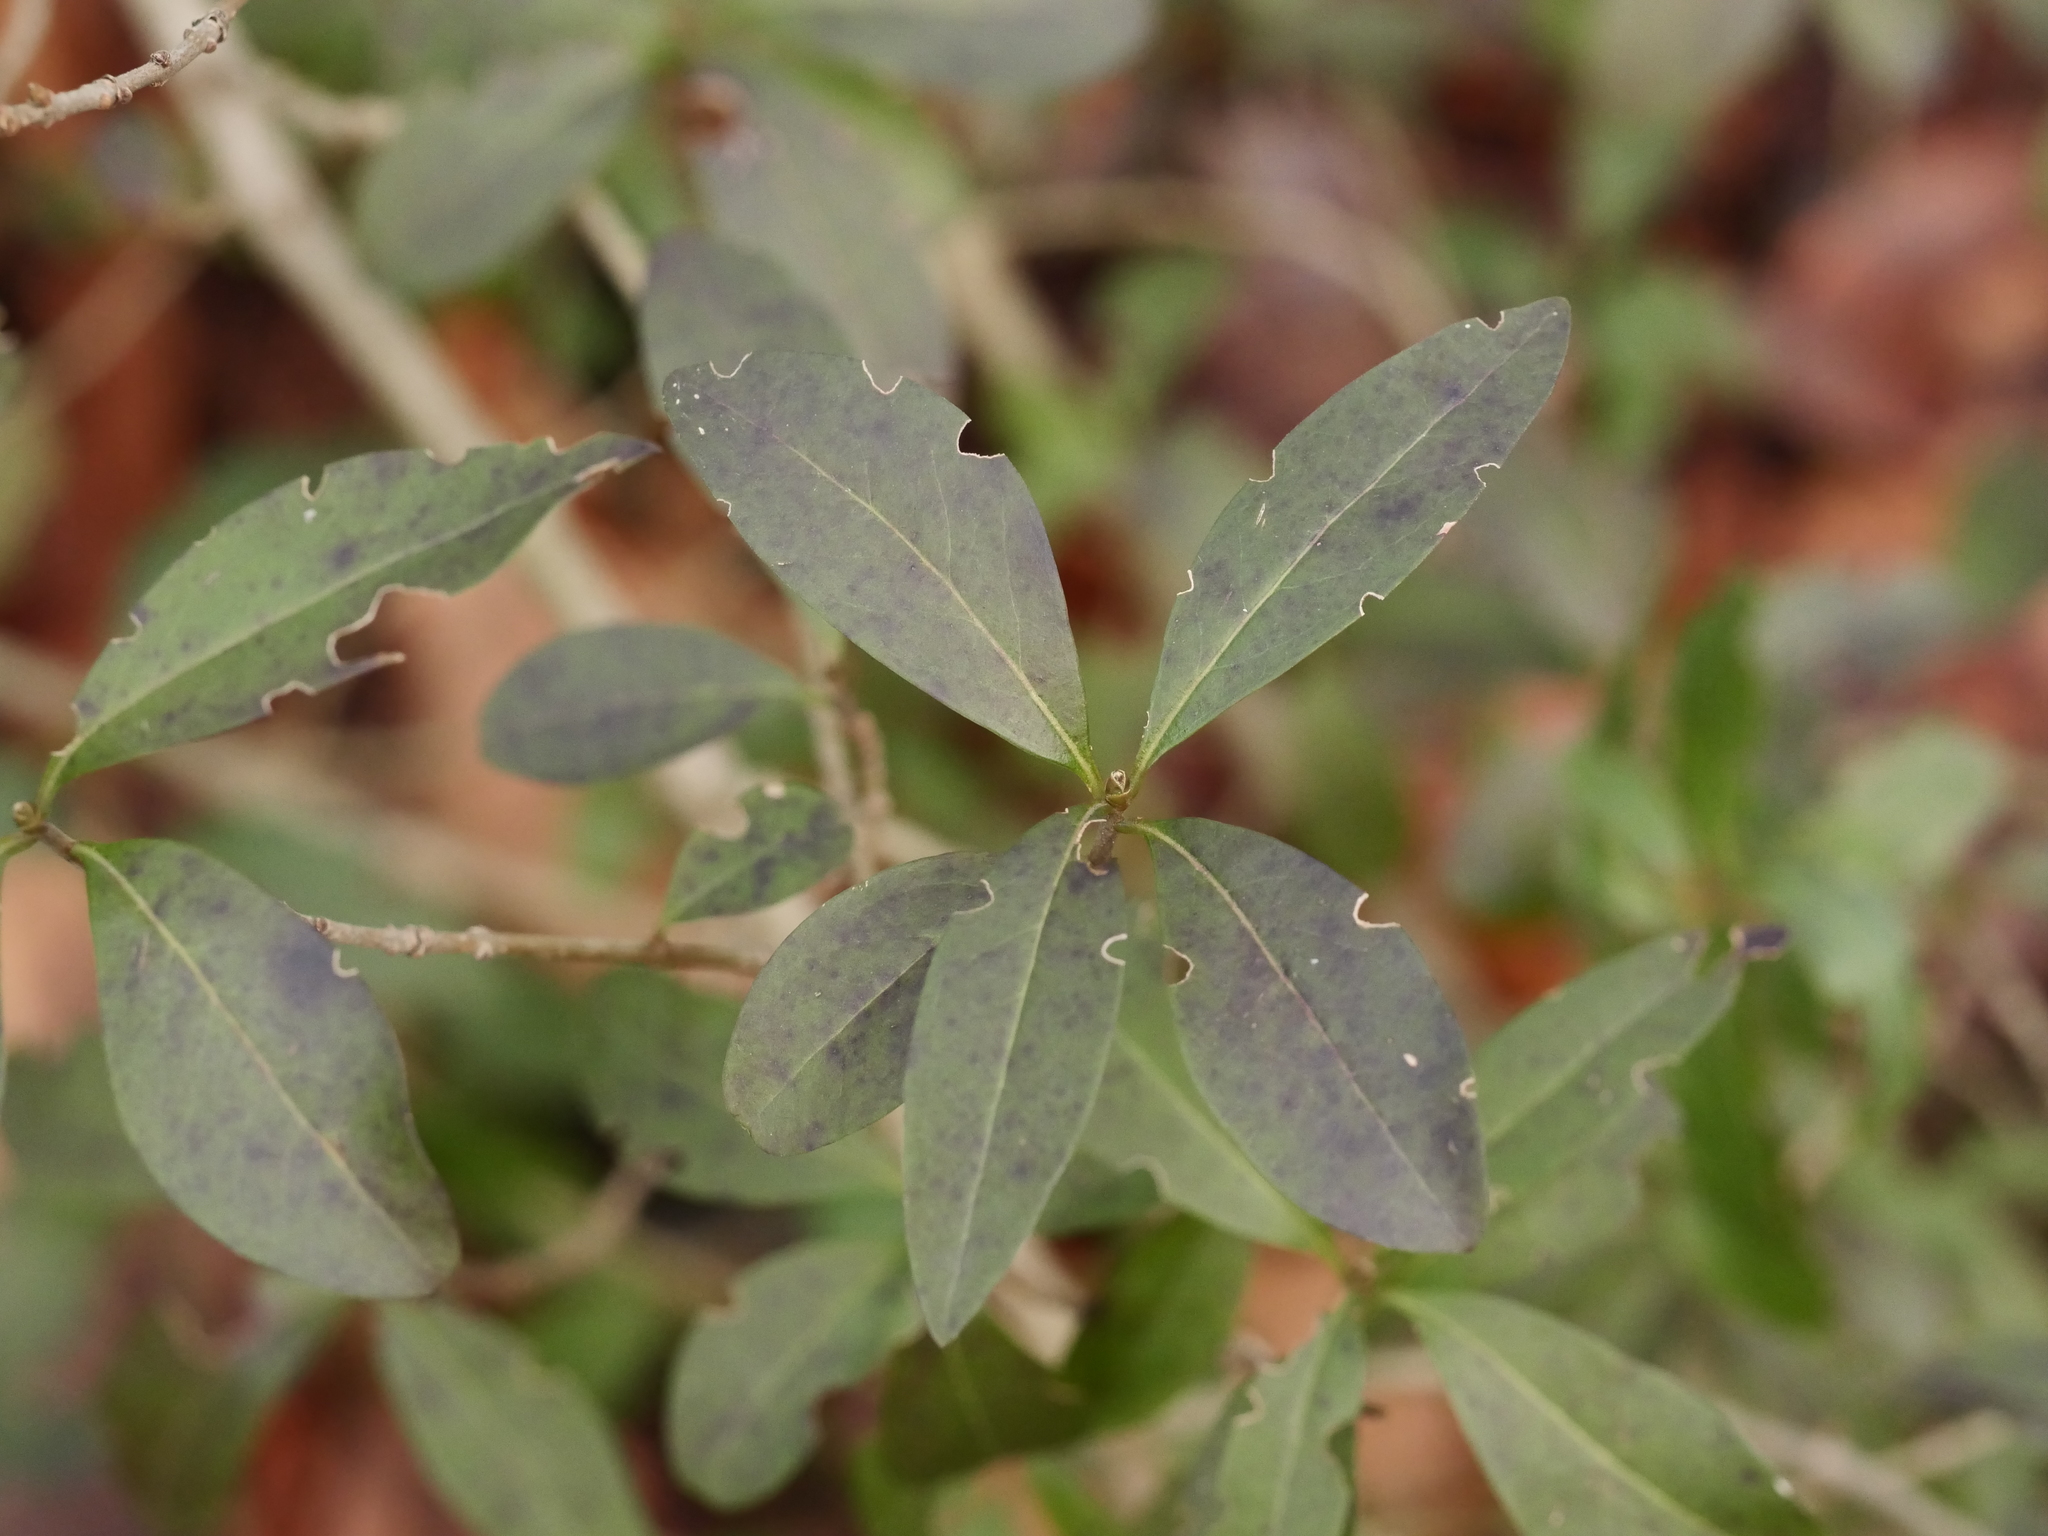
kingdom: Plantae
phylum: Tracheophyta
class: Magnoliopsida
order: Lamiales
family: Oleaceae
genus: Ligustrum
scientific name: Ligustrum vulgare
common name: Wild privet
